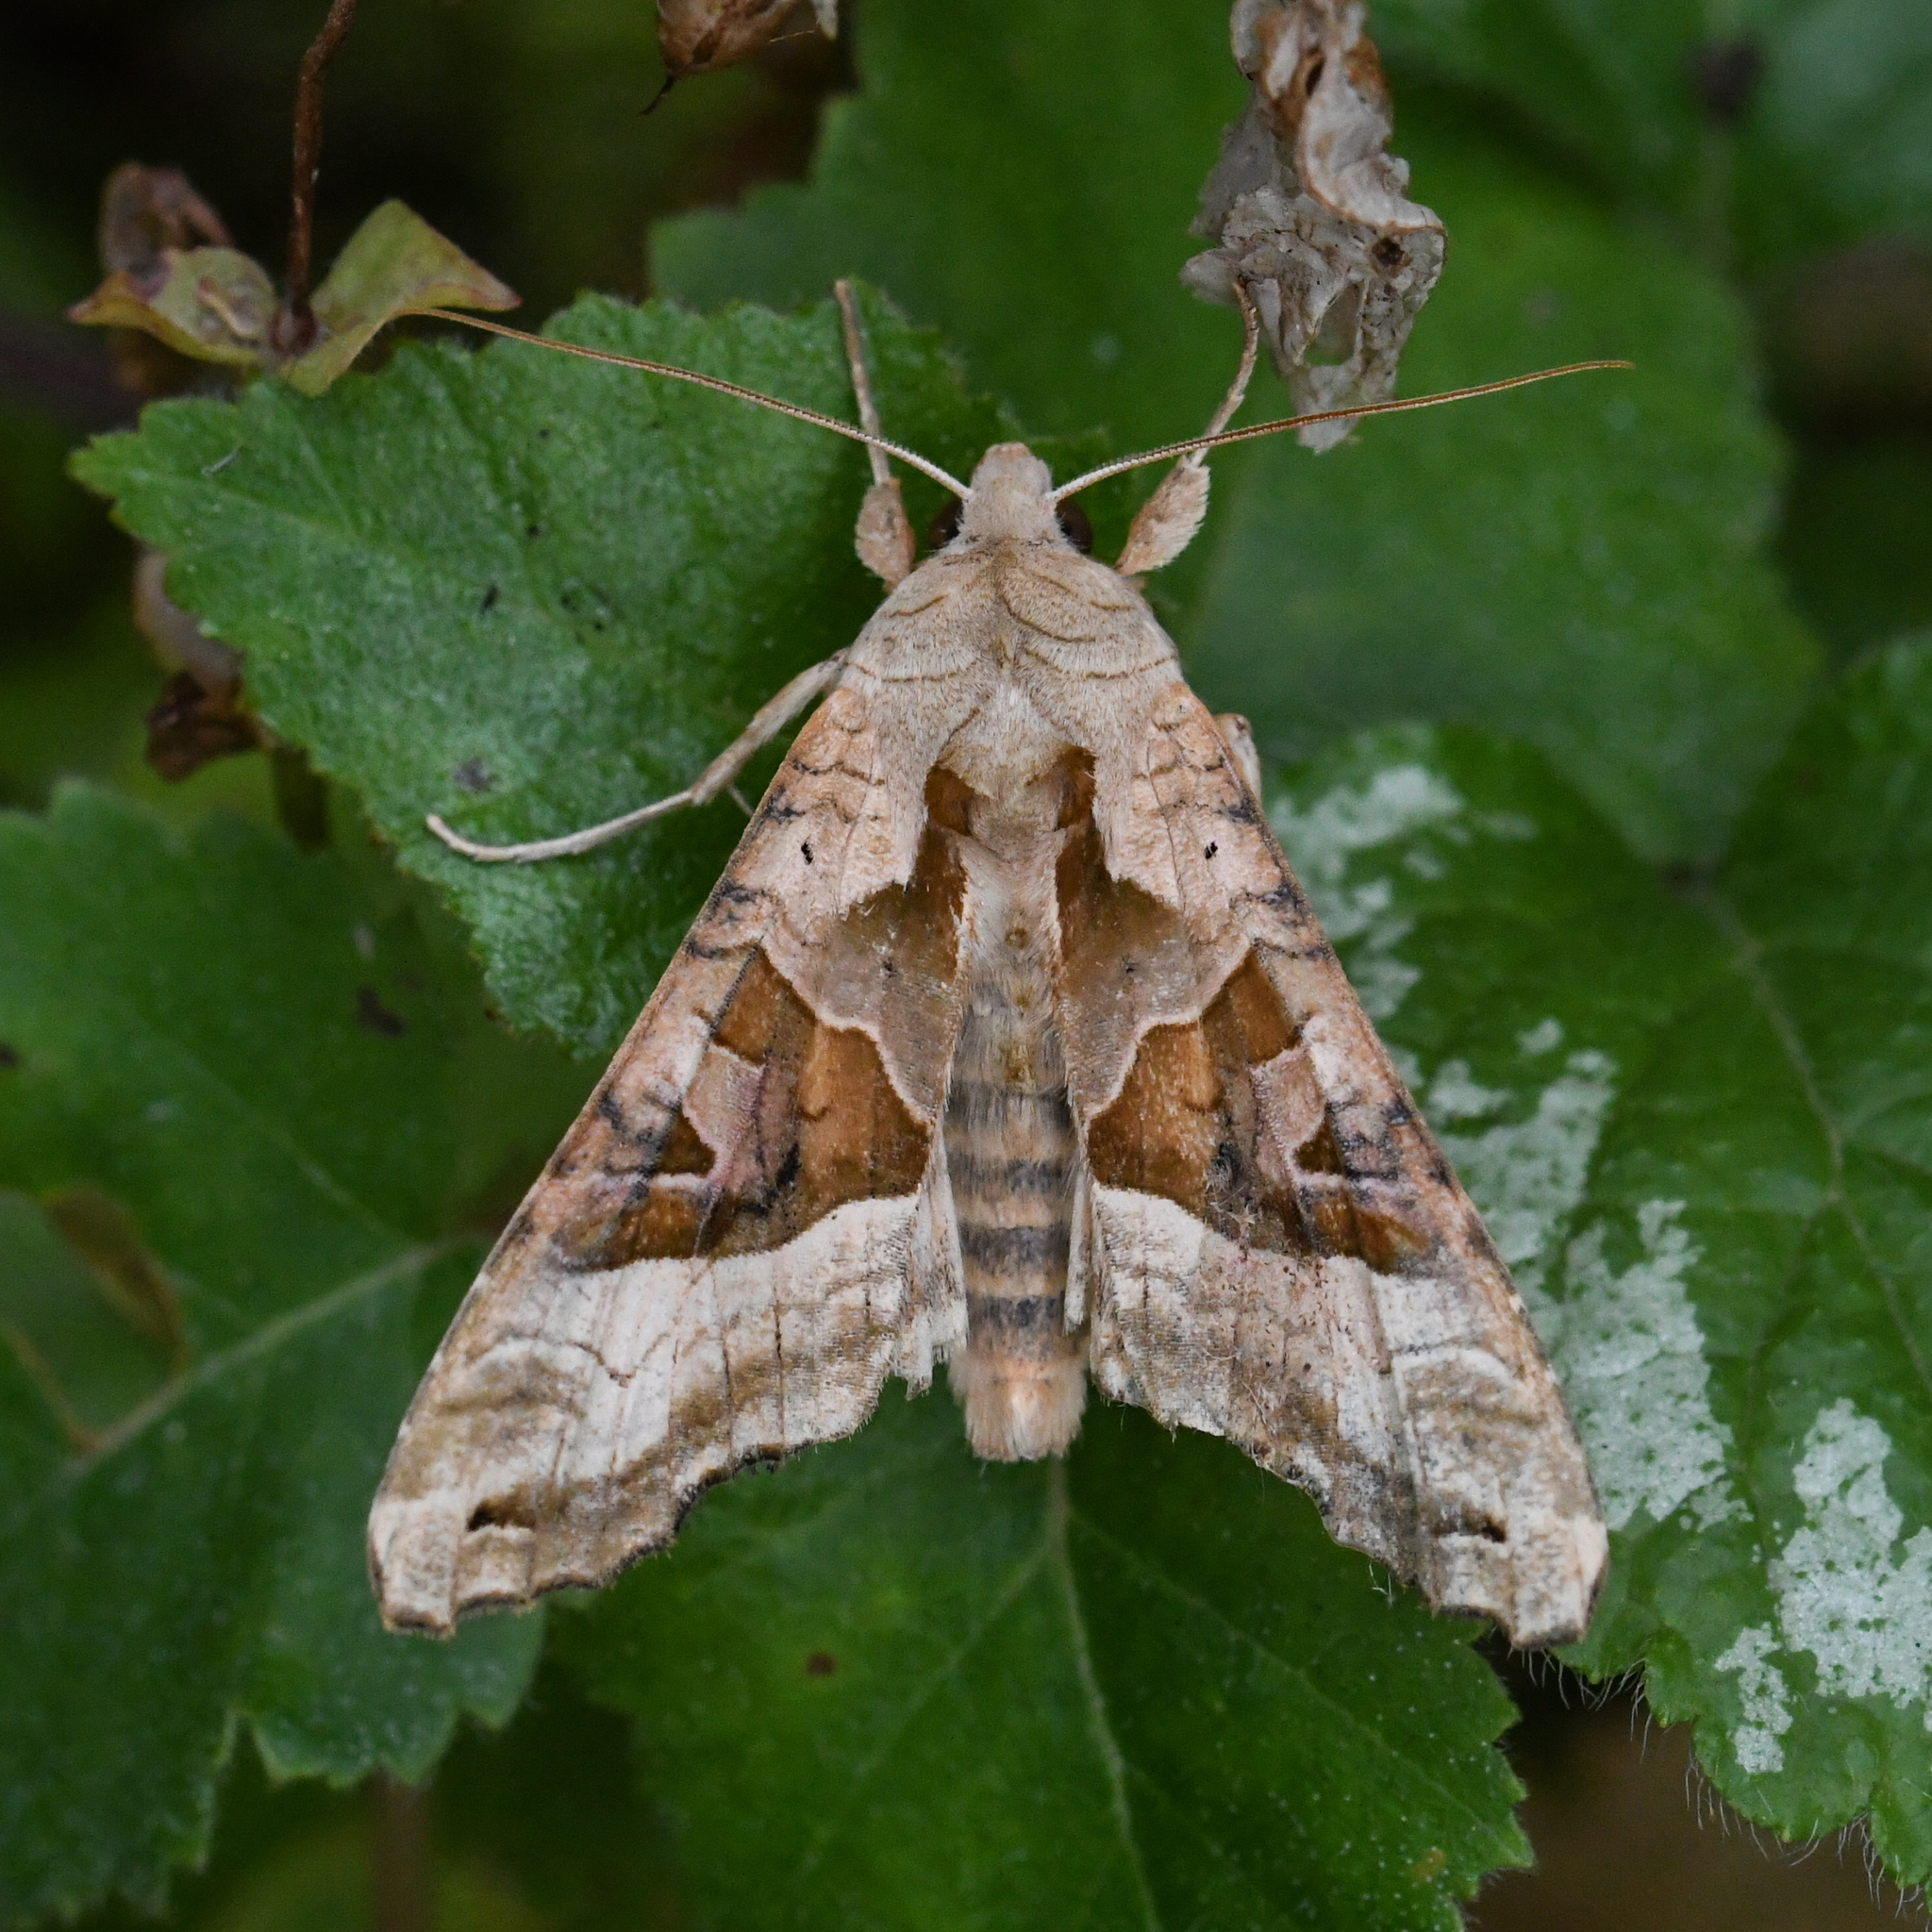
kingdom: Animalia
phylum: Arthropoda
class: Insecta
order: Lepidoptera
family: Noctuidae
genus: Phlogophora
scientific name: Phlogophora meticulosa
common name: Angle shades
